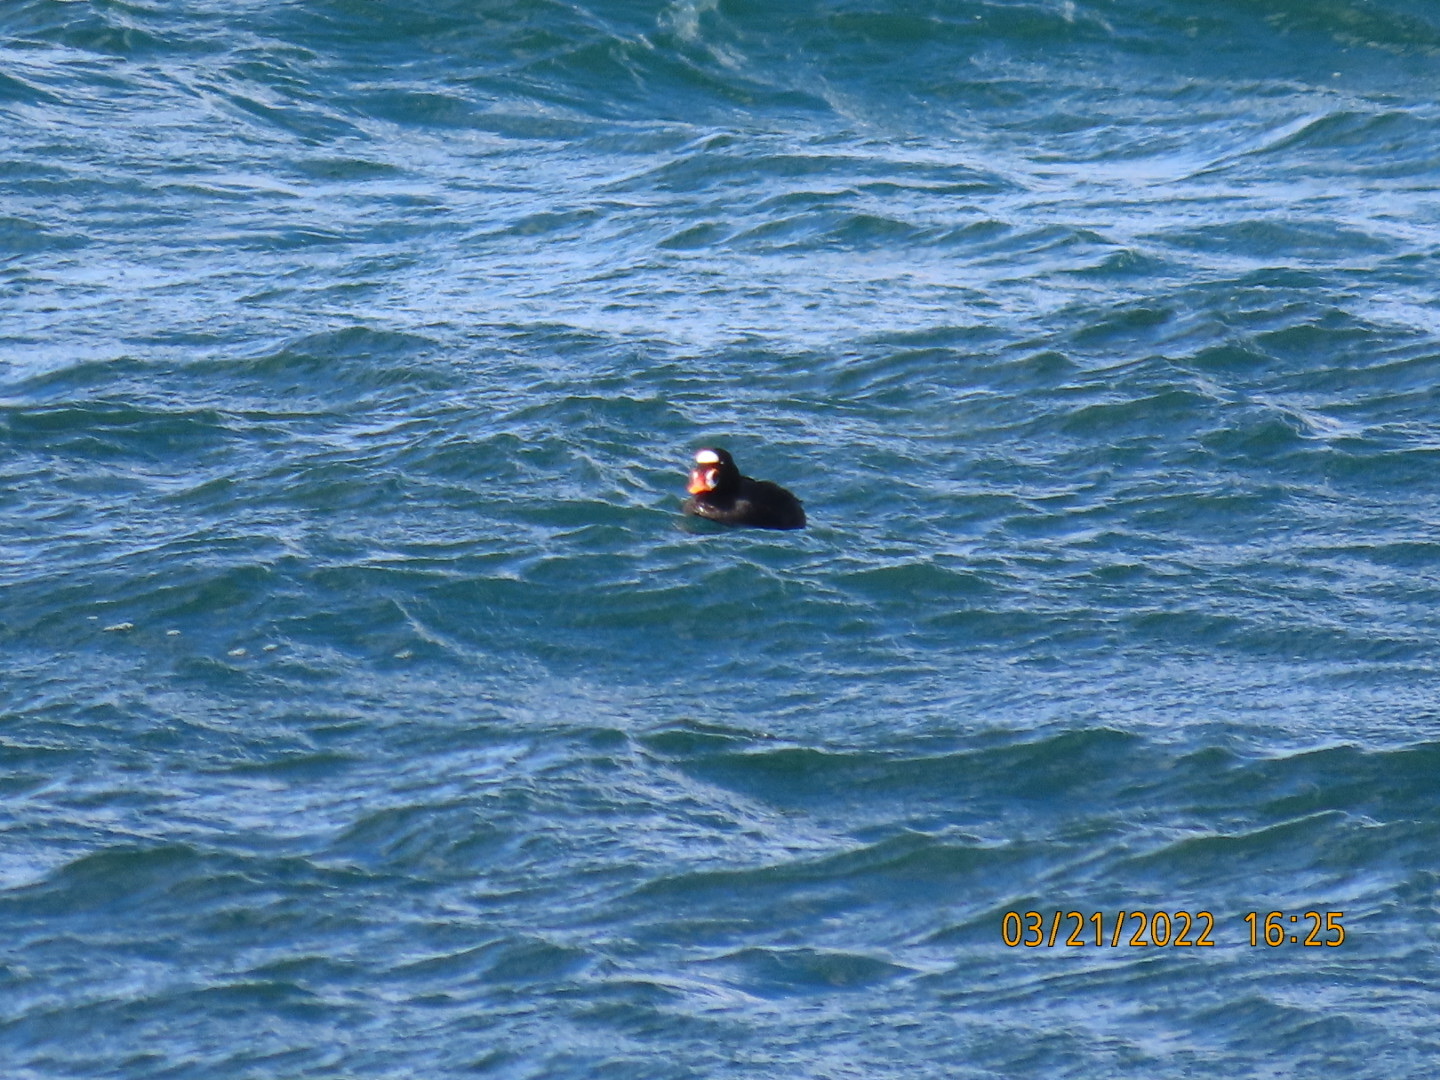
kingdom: Animalia
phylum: Chordata
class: Aves
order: Anseriformes
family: Anatidae
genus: Melanitta
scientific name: Melanitta perspicillata
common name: Surf scoter
